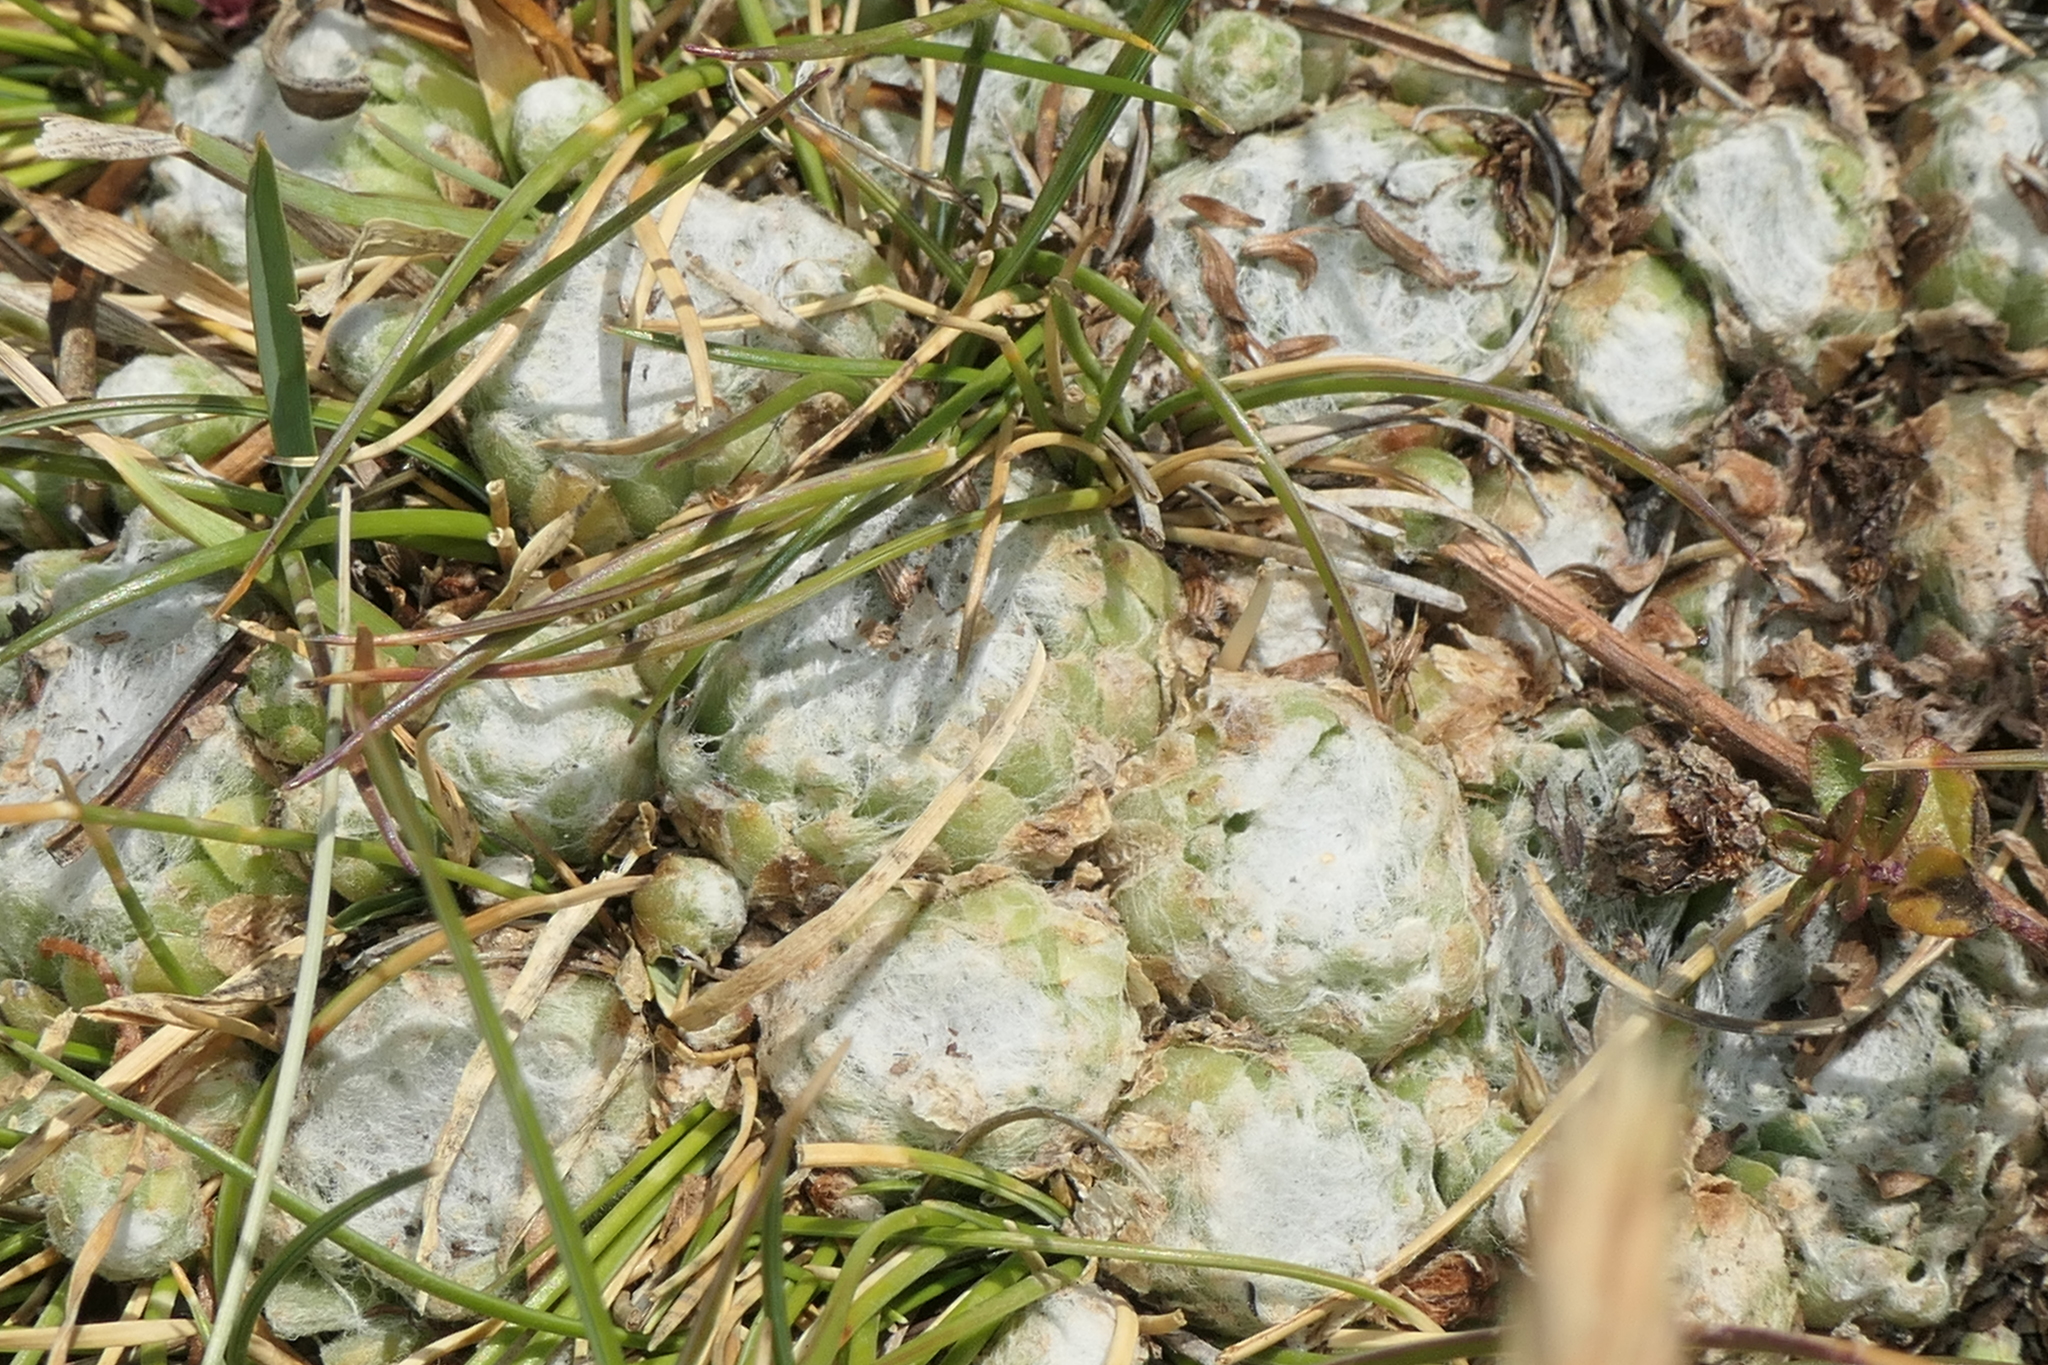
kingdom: Plantae
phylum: Tracheophyta
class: Magnoliopsida
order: Saxifragales
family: Crassulaceae
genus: Sempervivum
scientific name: Sempervivum arachnoideum
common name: Cobweb house-leek
